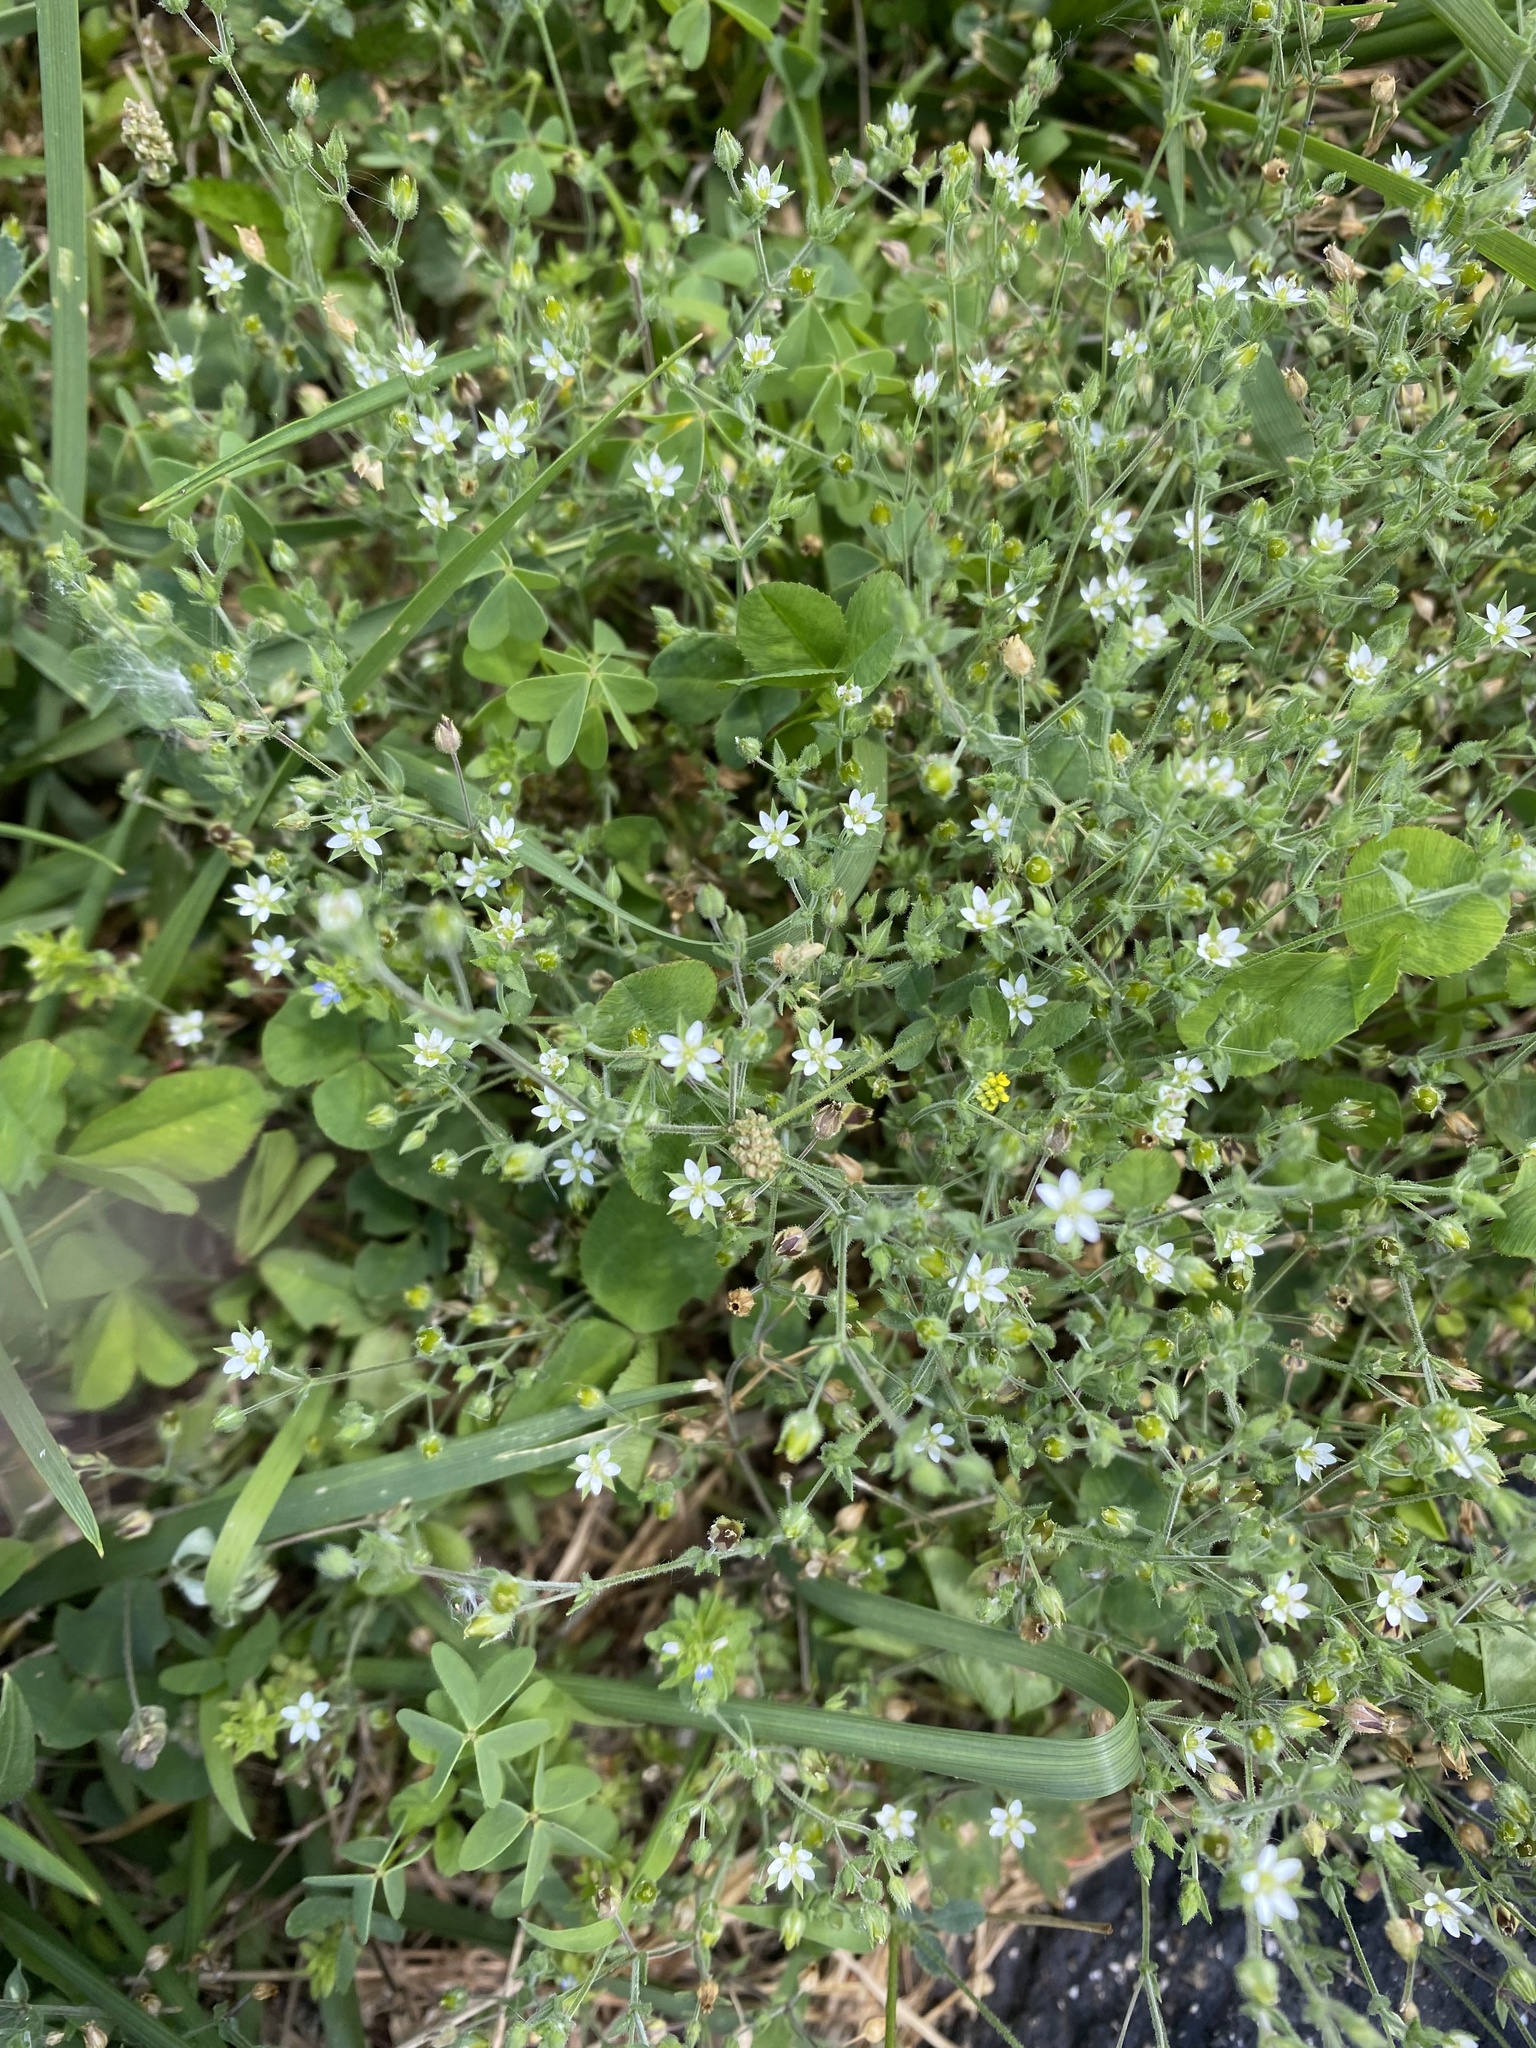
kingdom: Plantae
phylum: Tracheophyta
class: Magnoliopsida
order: Caryophyllales
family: Caryophyllaceae
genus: Arenaria
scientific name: Arenaria serpyllifolia
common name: Thyme-leaved sandwort
